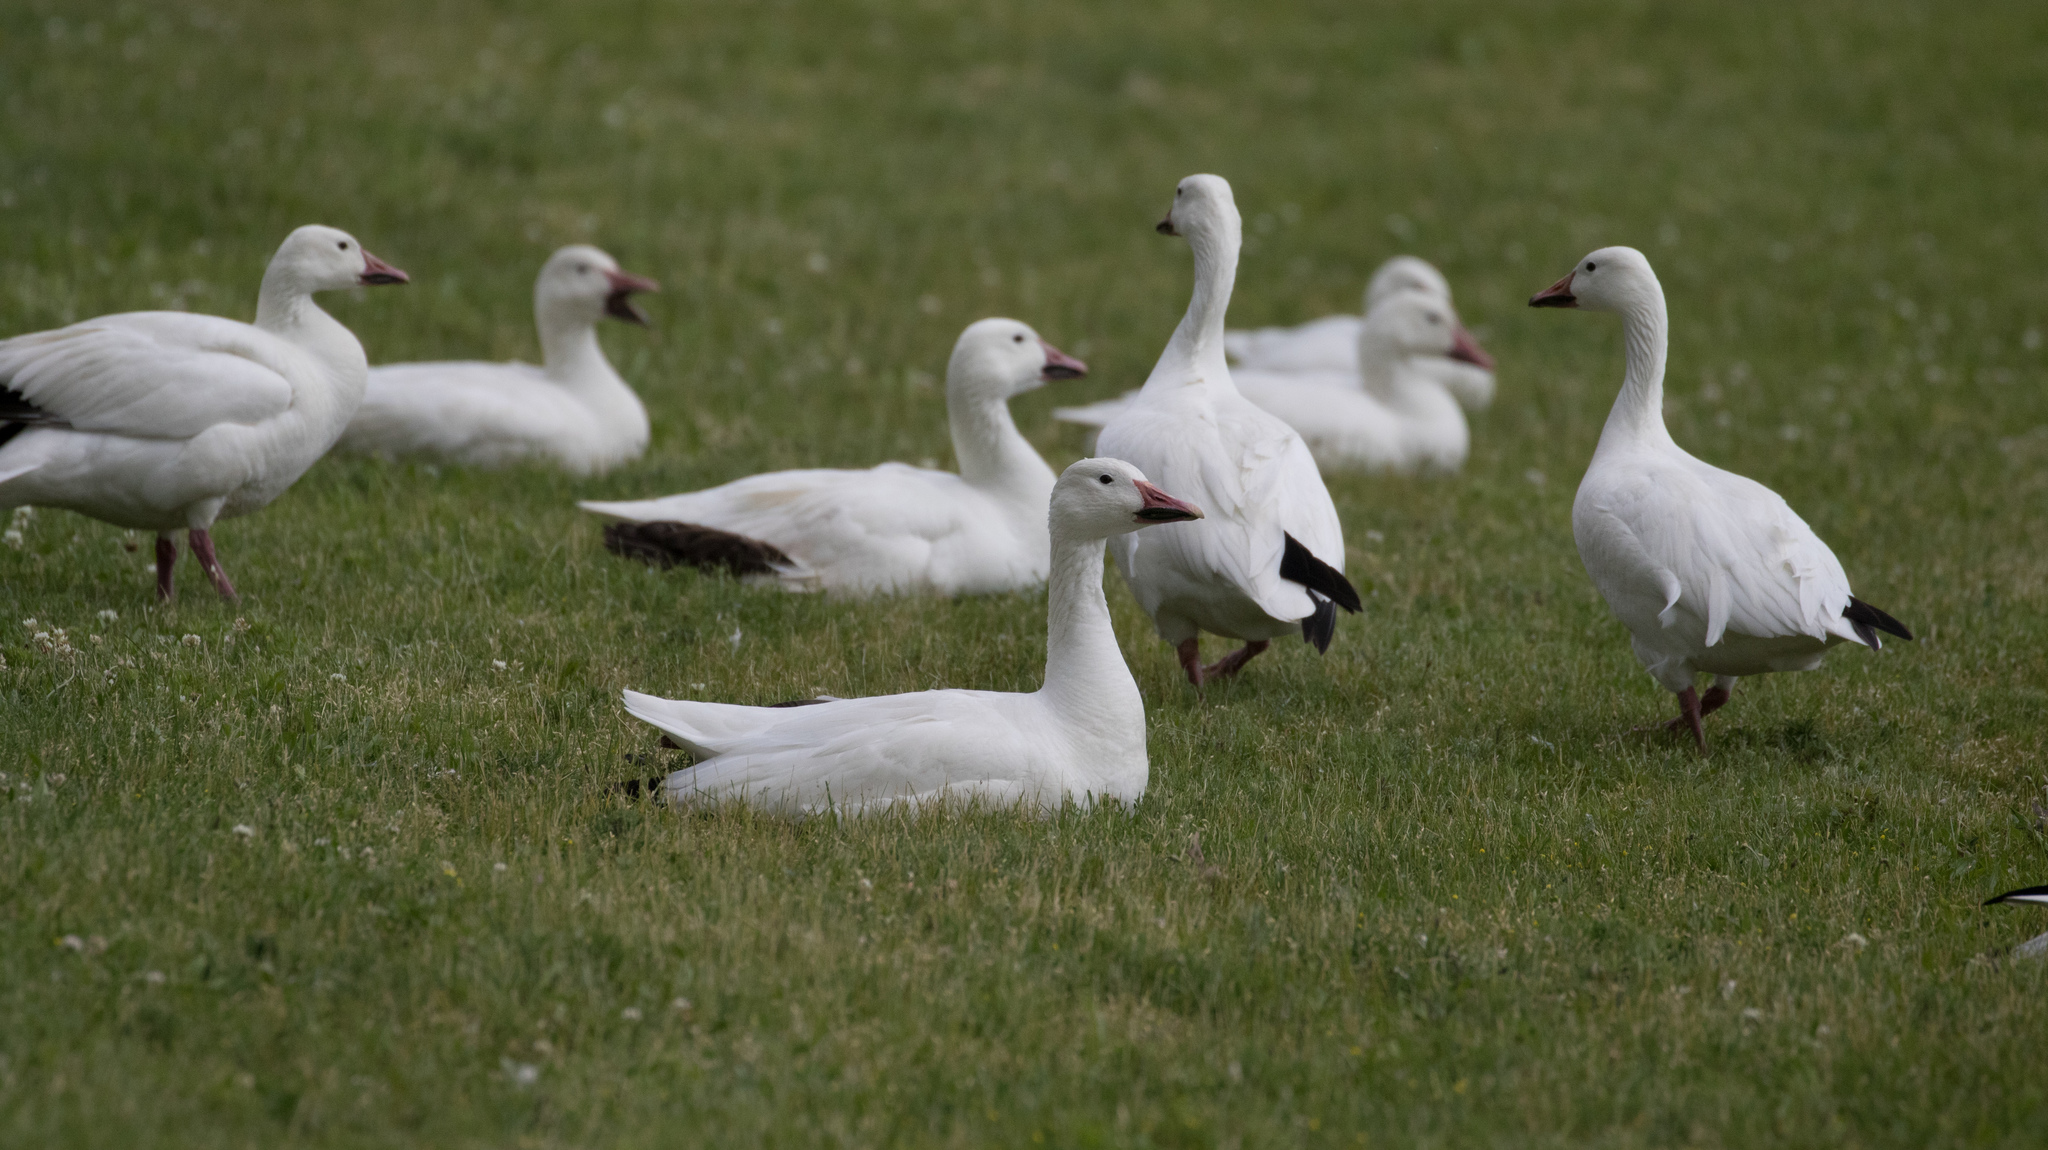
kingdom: Animalia
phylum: Chordata
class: Aves
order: Anseriformes
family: Anatidae
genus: Anser
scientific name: Anser caerulescens
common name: Snow goose
